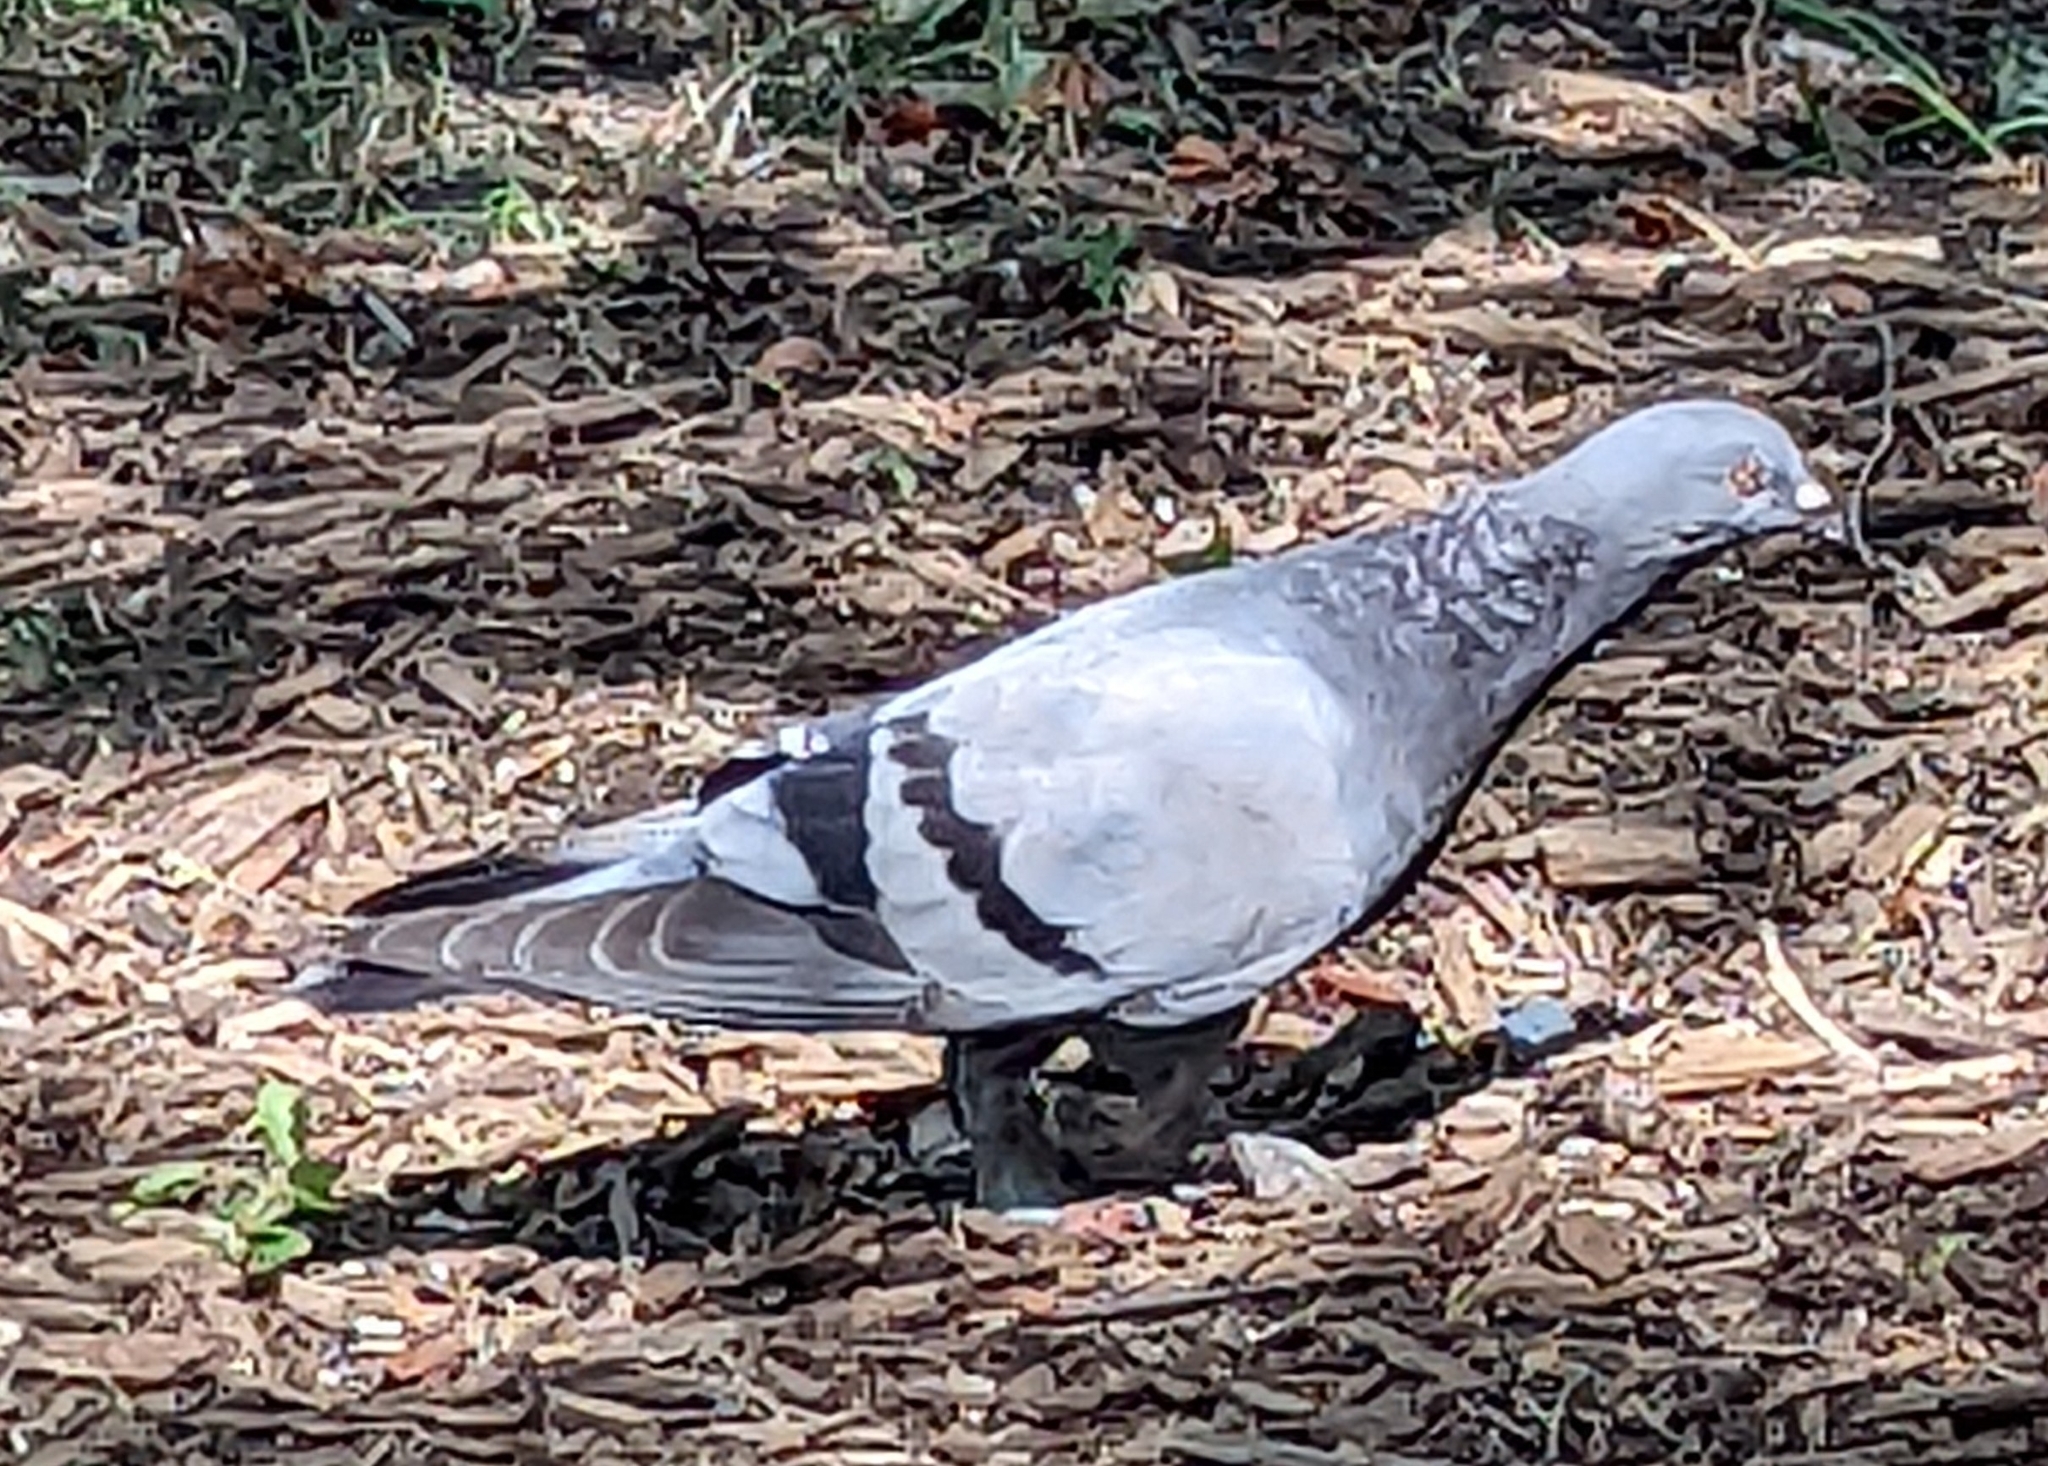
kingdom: Animalia
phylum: Chordata
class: Aves
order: Columbiformes
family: Columbidae
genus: Columba
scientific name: Columba livia
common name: Rock pigeon
